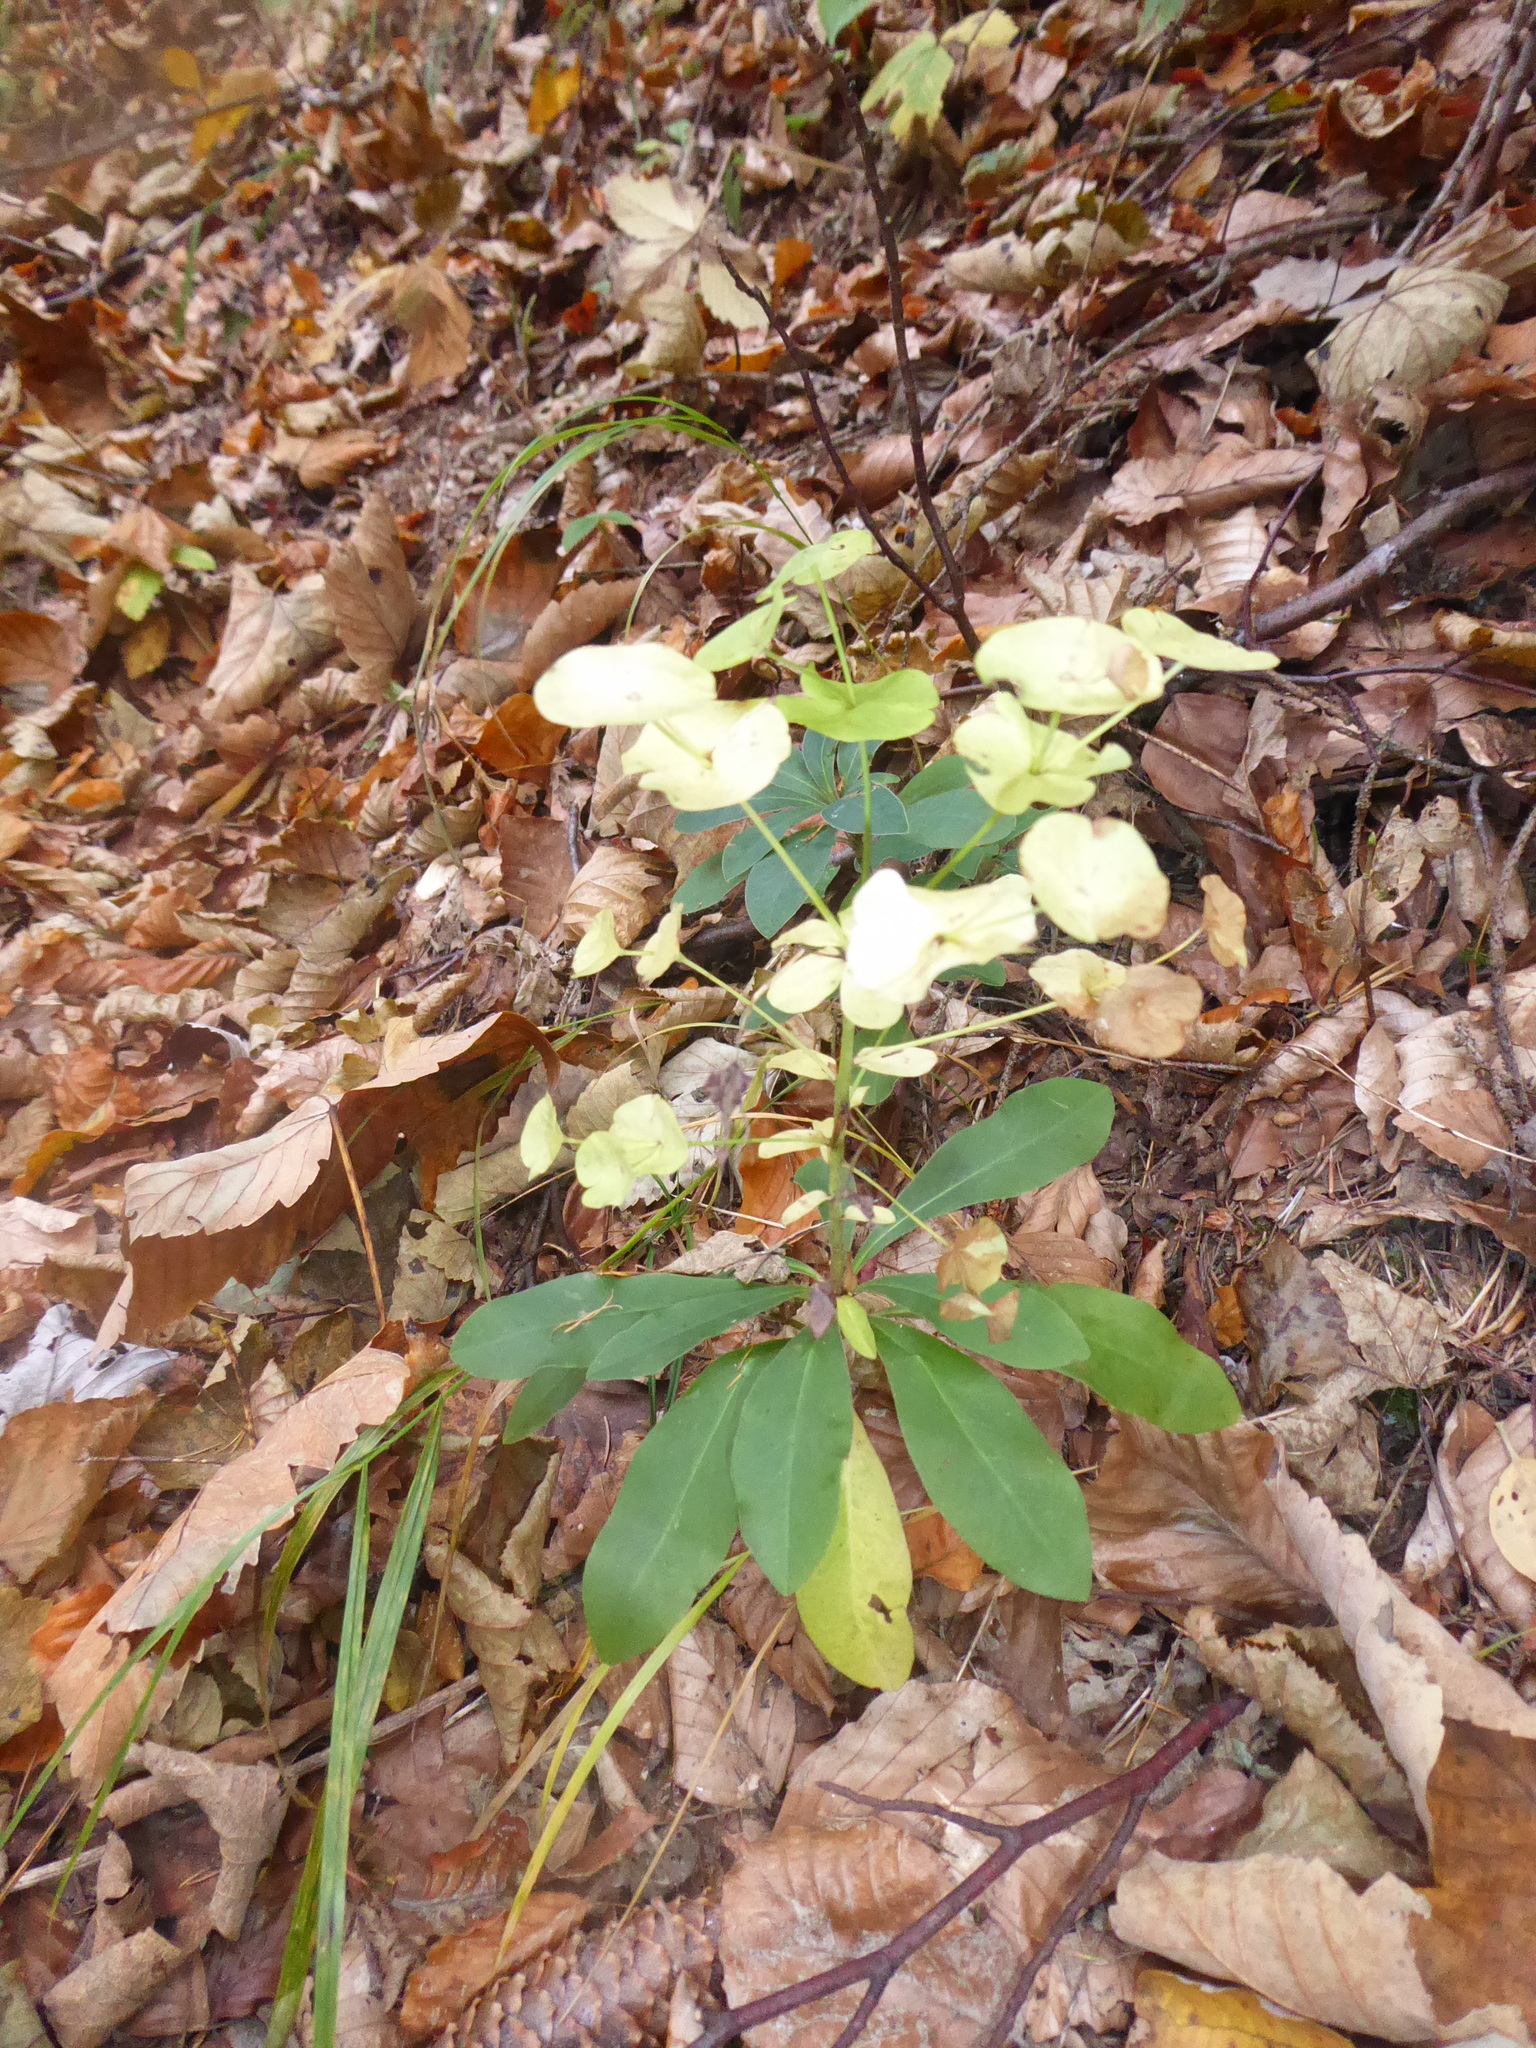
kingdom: Plantae
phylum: Tracheophyta
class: Magnoliopsida
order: Malpighiales
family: Euphorbiaceae
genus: Euphorbia
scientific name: Euphorbia amygdaloides
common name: Wood spurge
